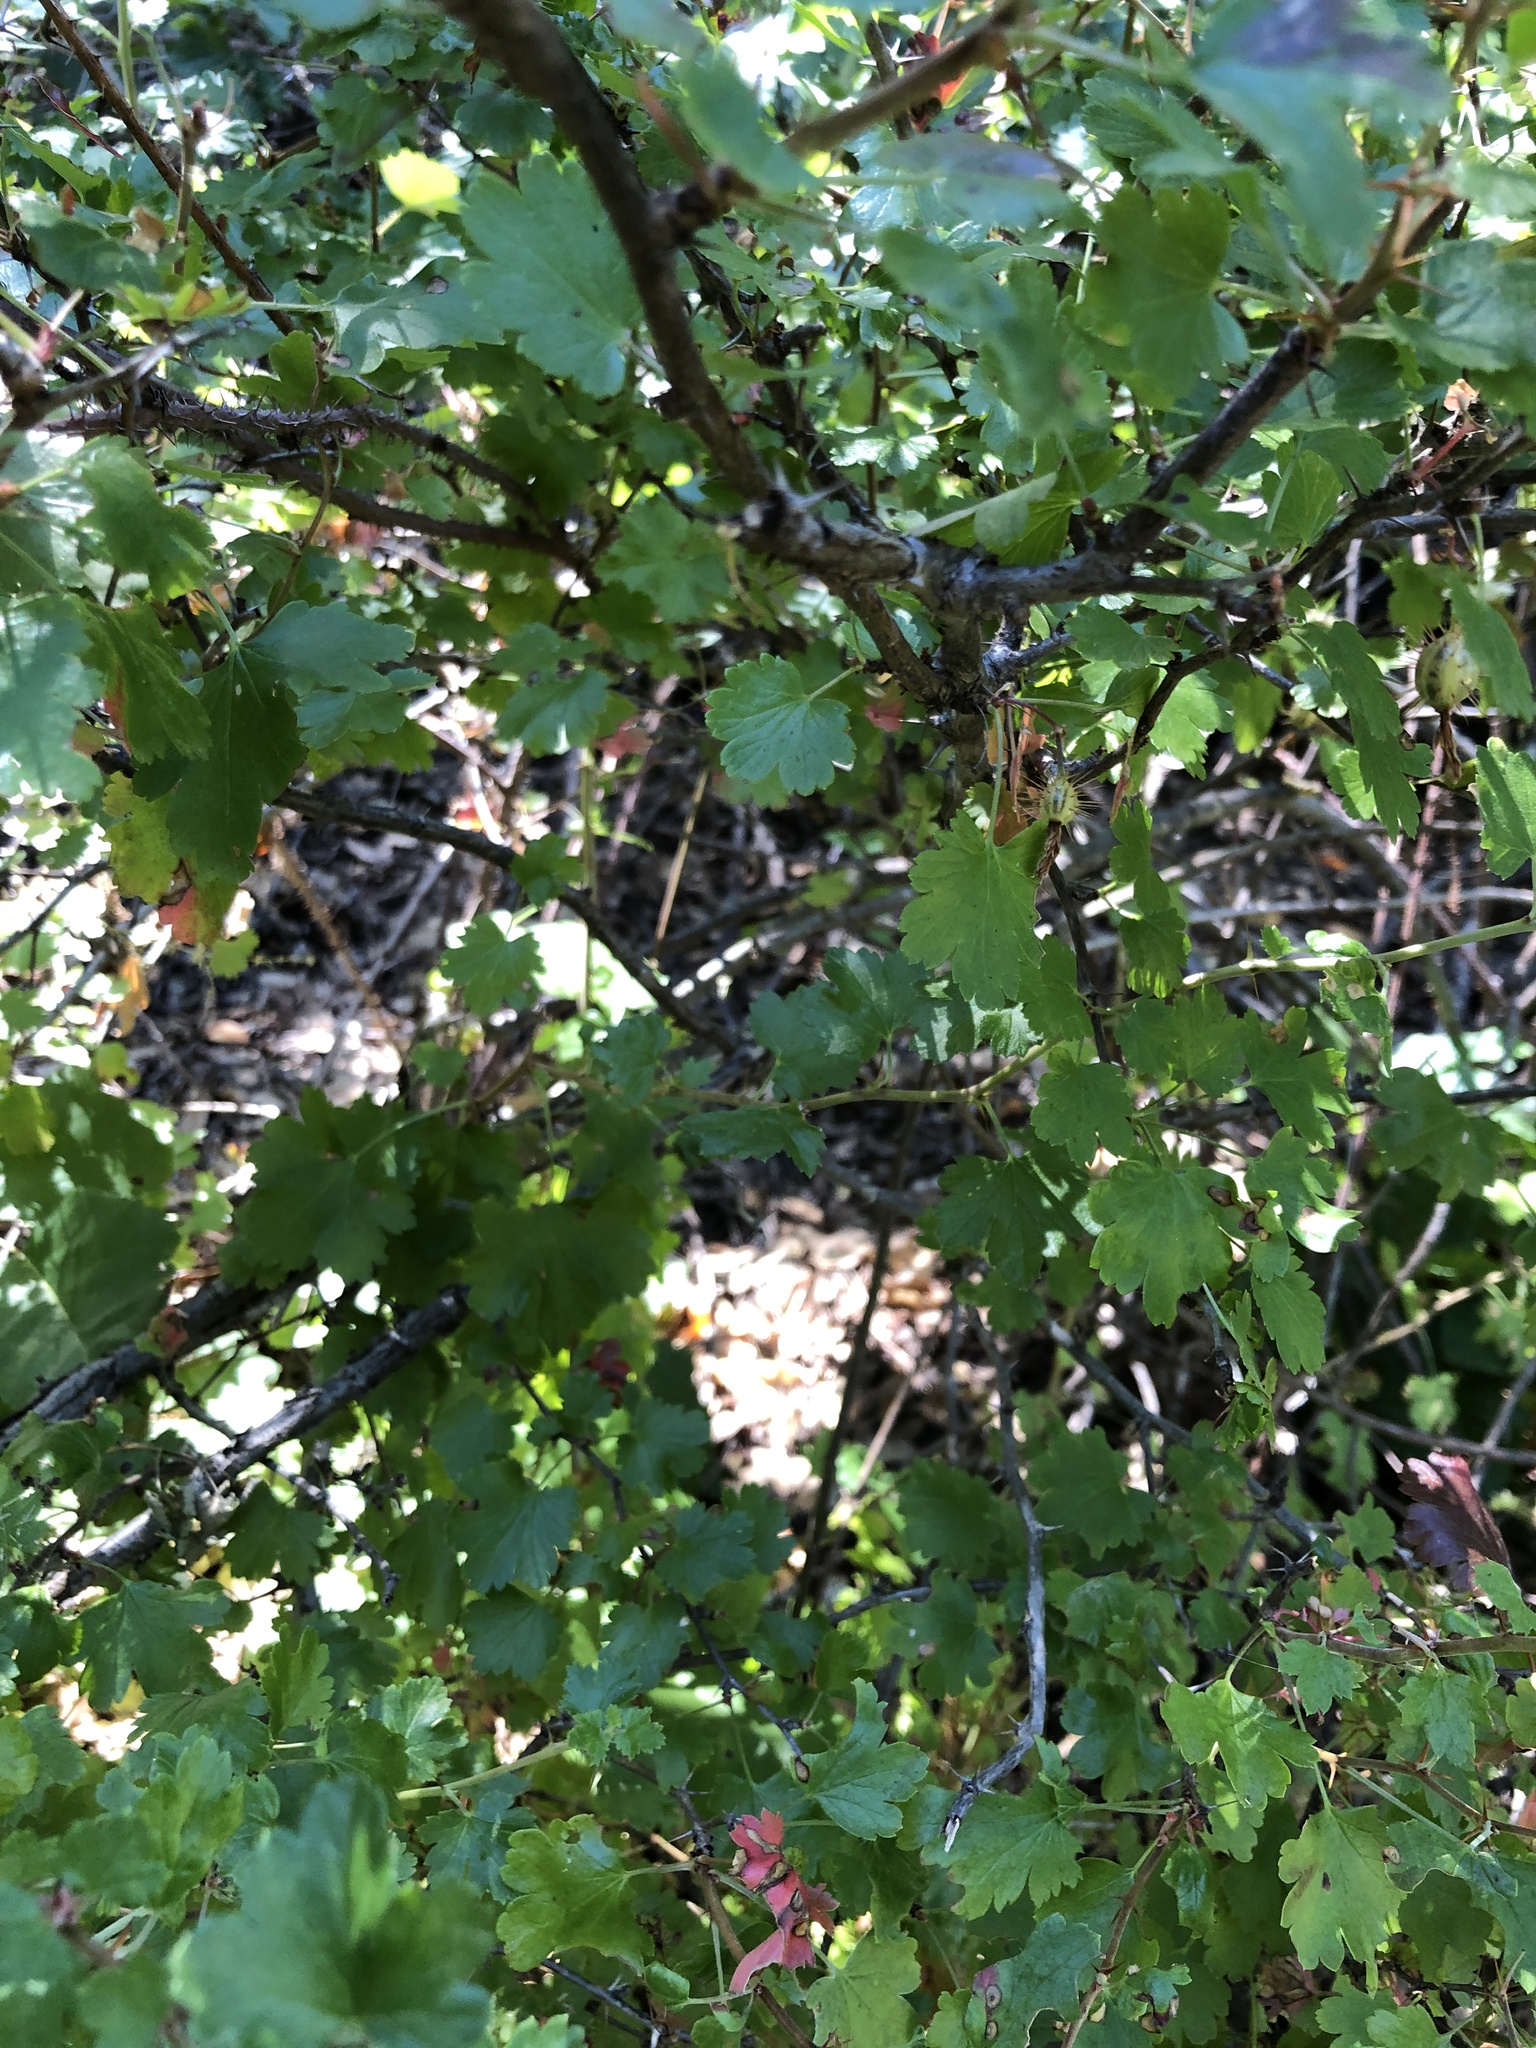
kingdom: Plantae
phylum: Tracheophyta
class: Magnoliopsida
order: Saxifragales
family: Grossulariaceae
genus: Ribes
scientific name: Ribes californicum
